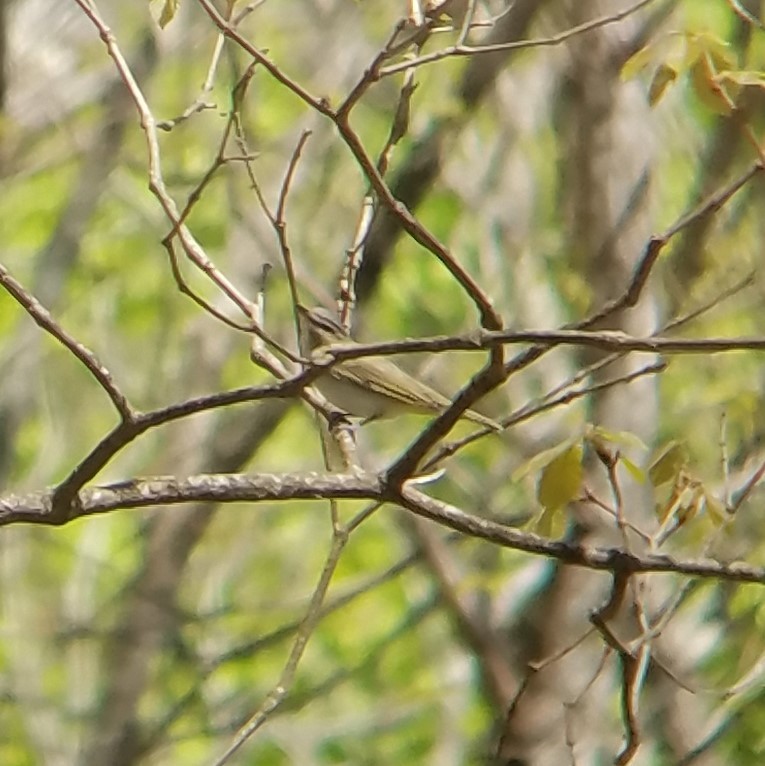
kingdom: Animalia
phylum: Chordata
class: Aves
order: Passeriformes
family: Vireonidae
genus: Vireo
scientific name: Vireo olivaceus
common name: Red-eyed vireo
